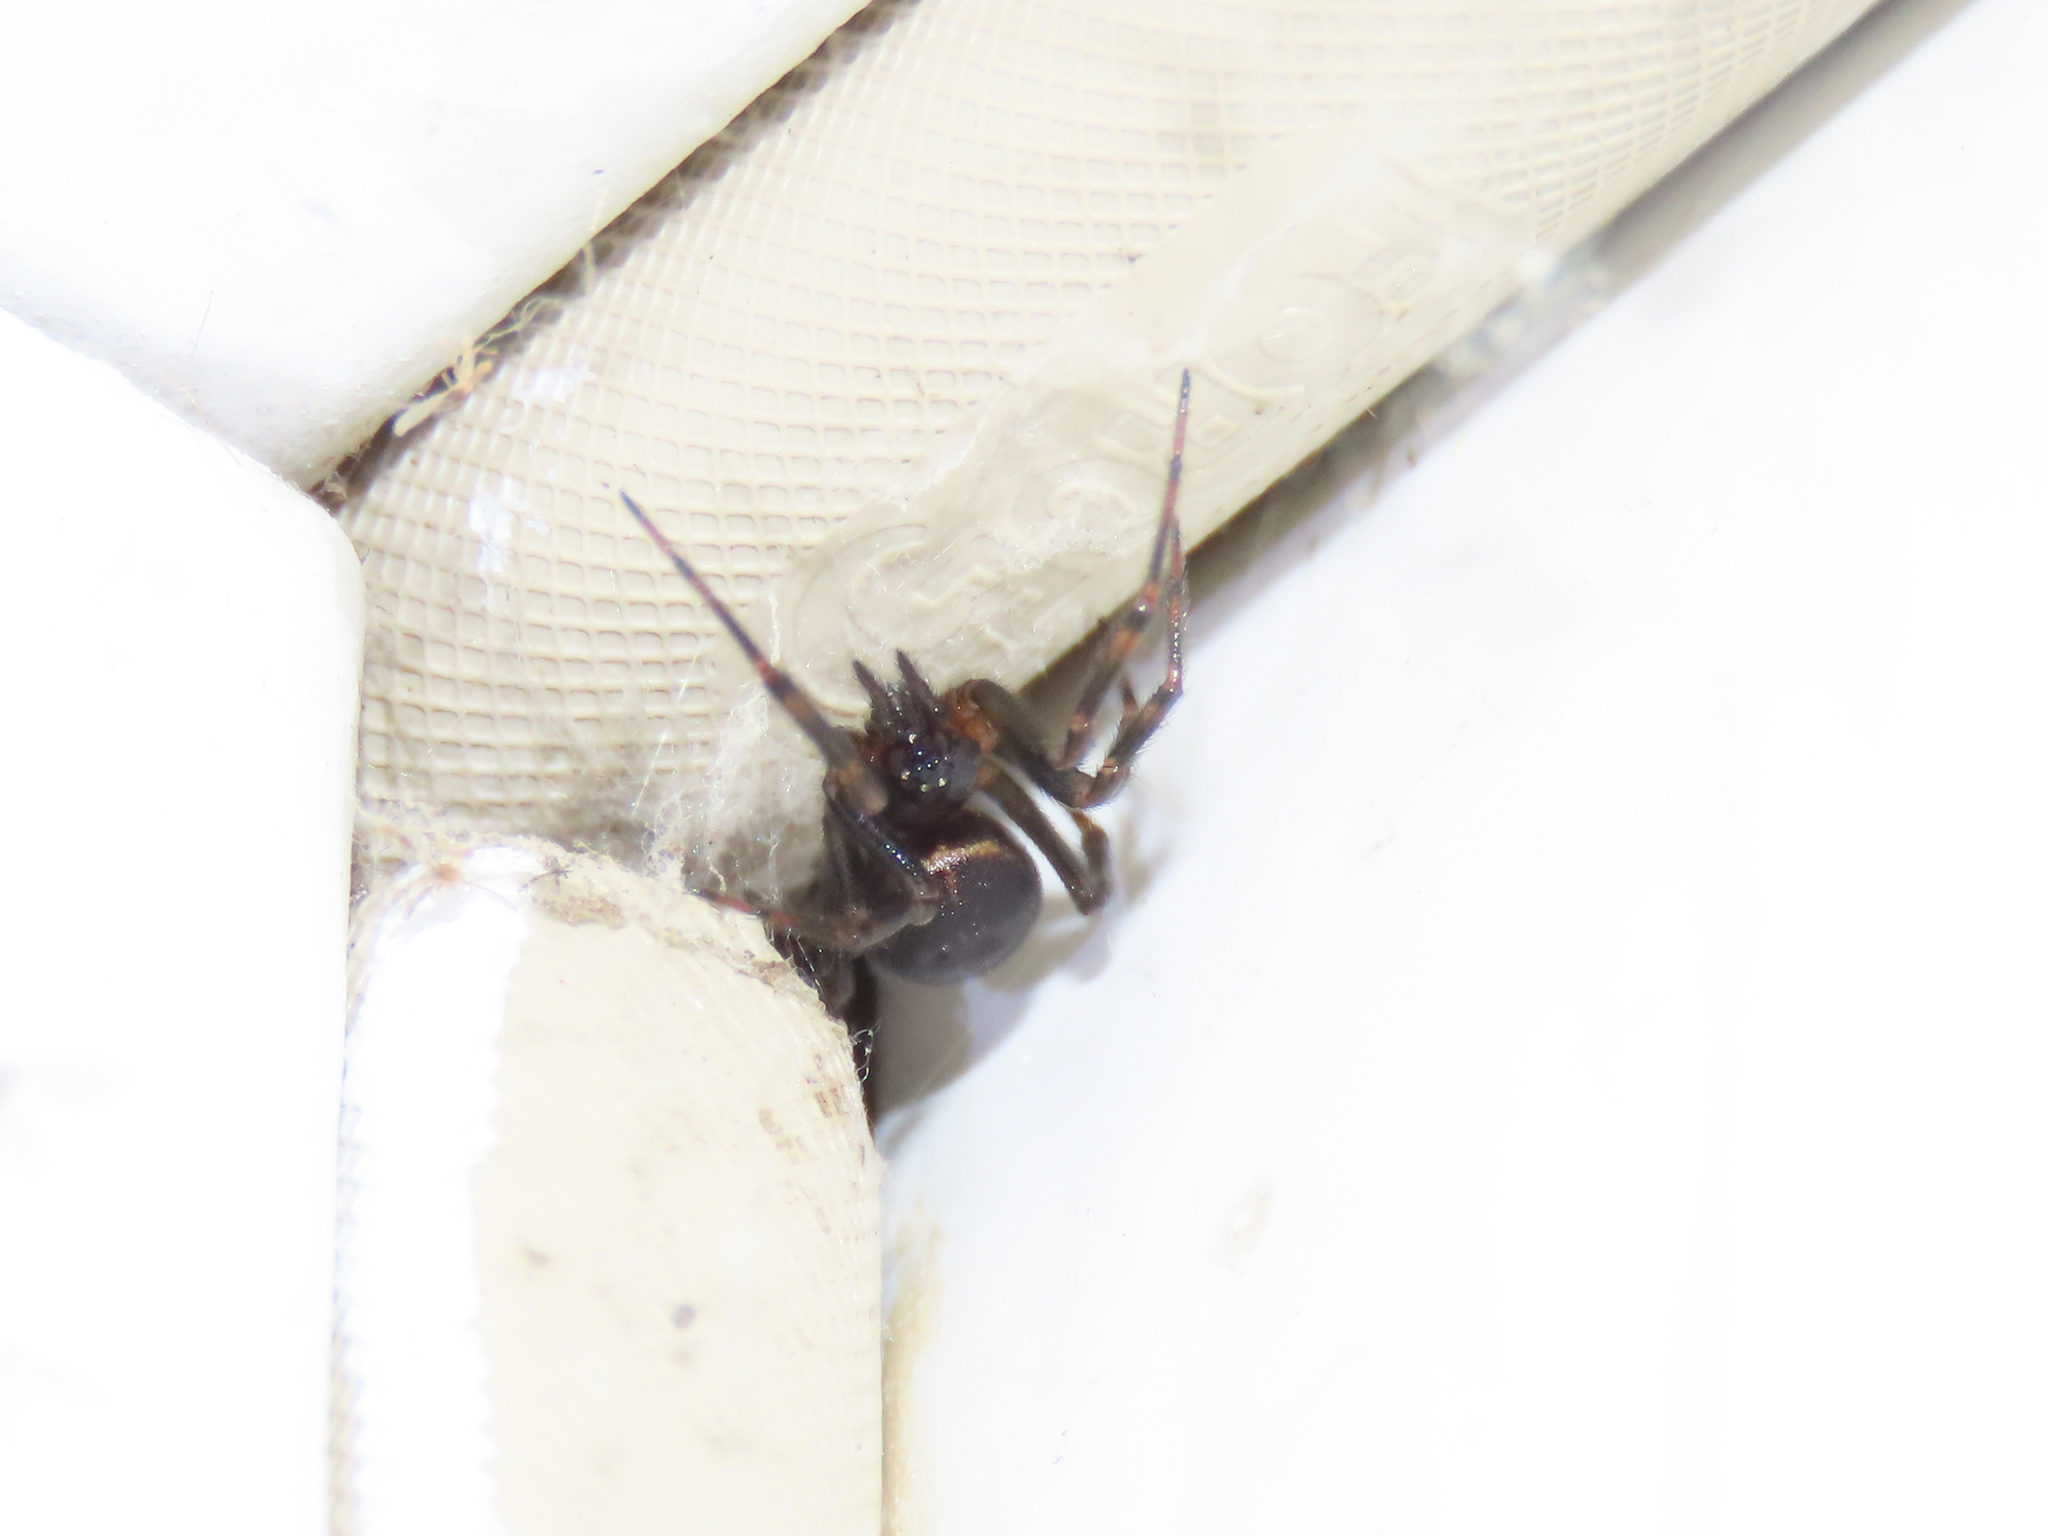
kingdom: Animalia
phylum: Arthropoda
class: Arachnida
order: Araneae
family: Theridiidae
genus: Steatoda
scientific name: Steatoda borealis
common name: Boreal combfoot
